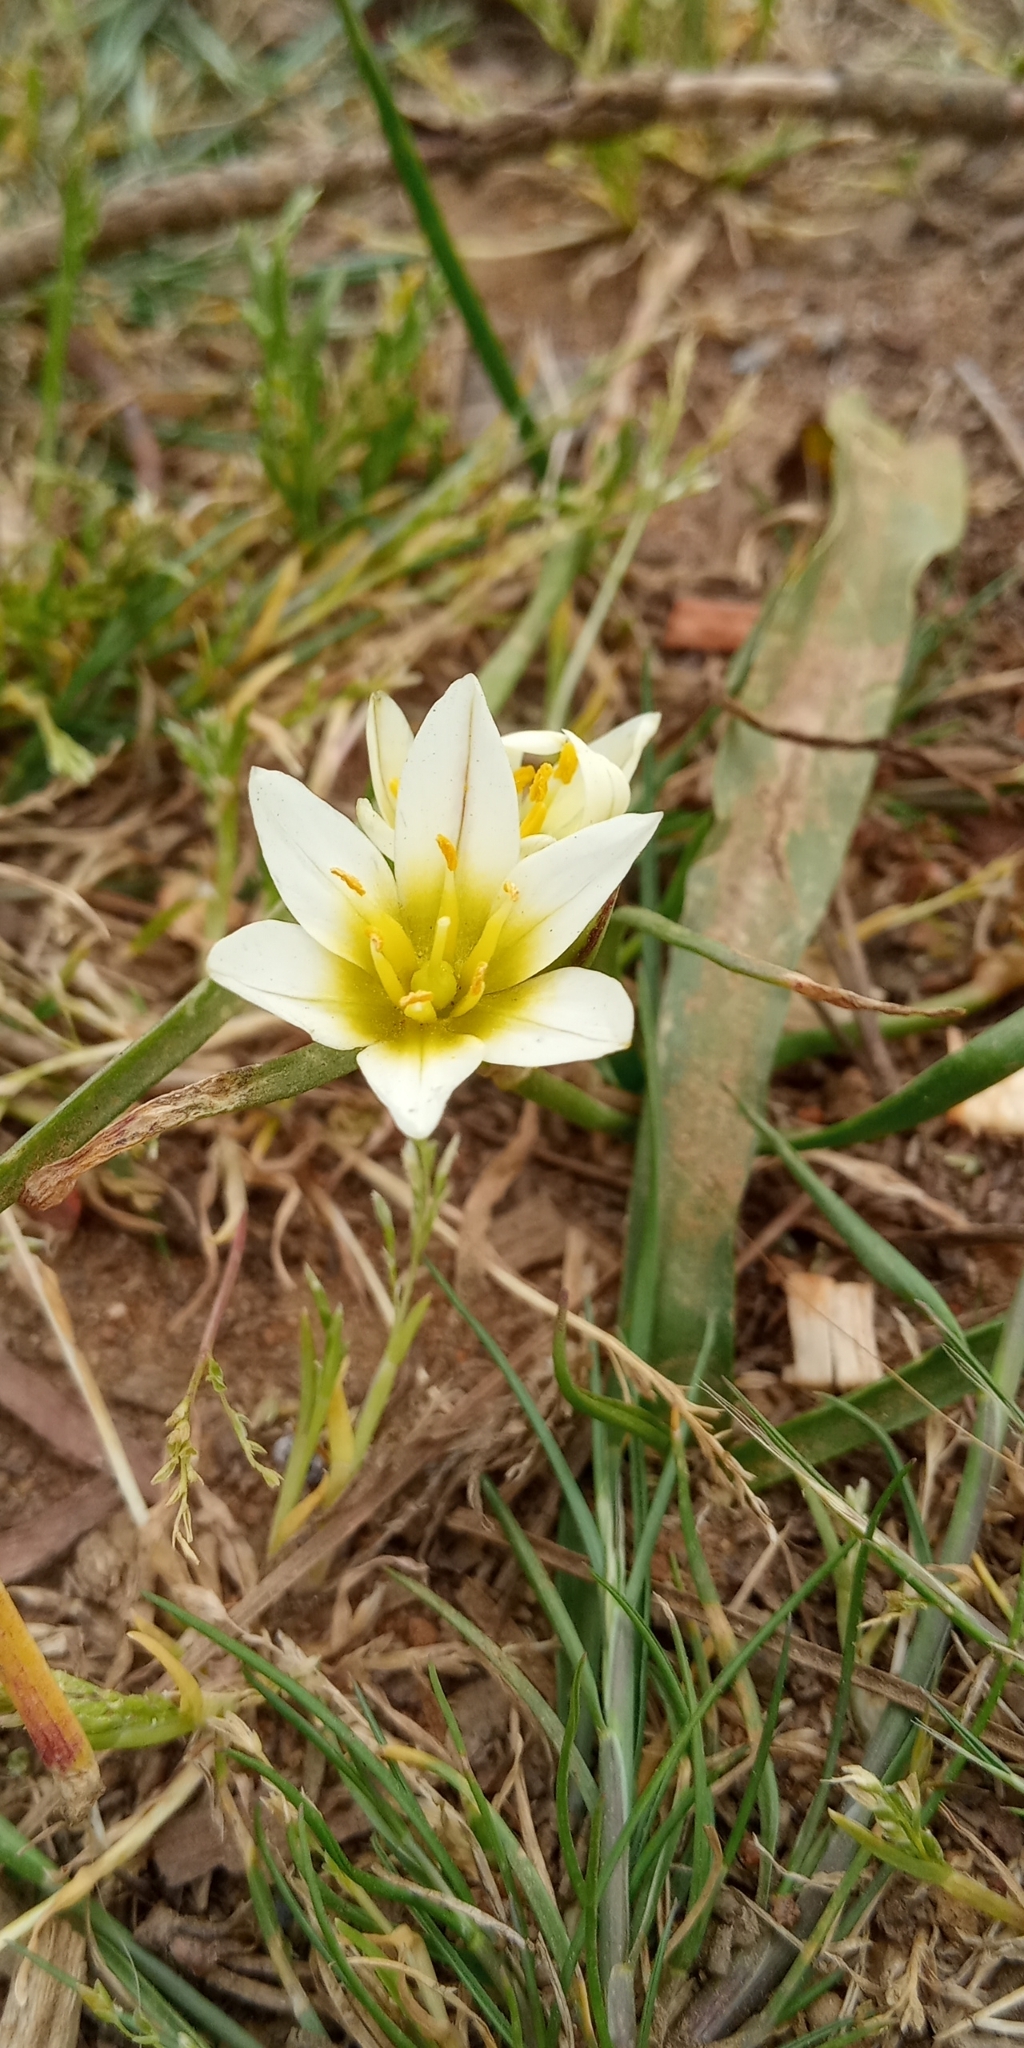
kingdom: Plantae
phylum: Tracheophyta
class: Liliopsida
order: Asparagales
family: Amaryllidaceae
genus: Nothoscordum
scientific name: Nothoscordum bivalve
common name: Crow-poison
